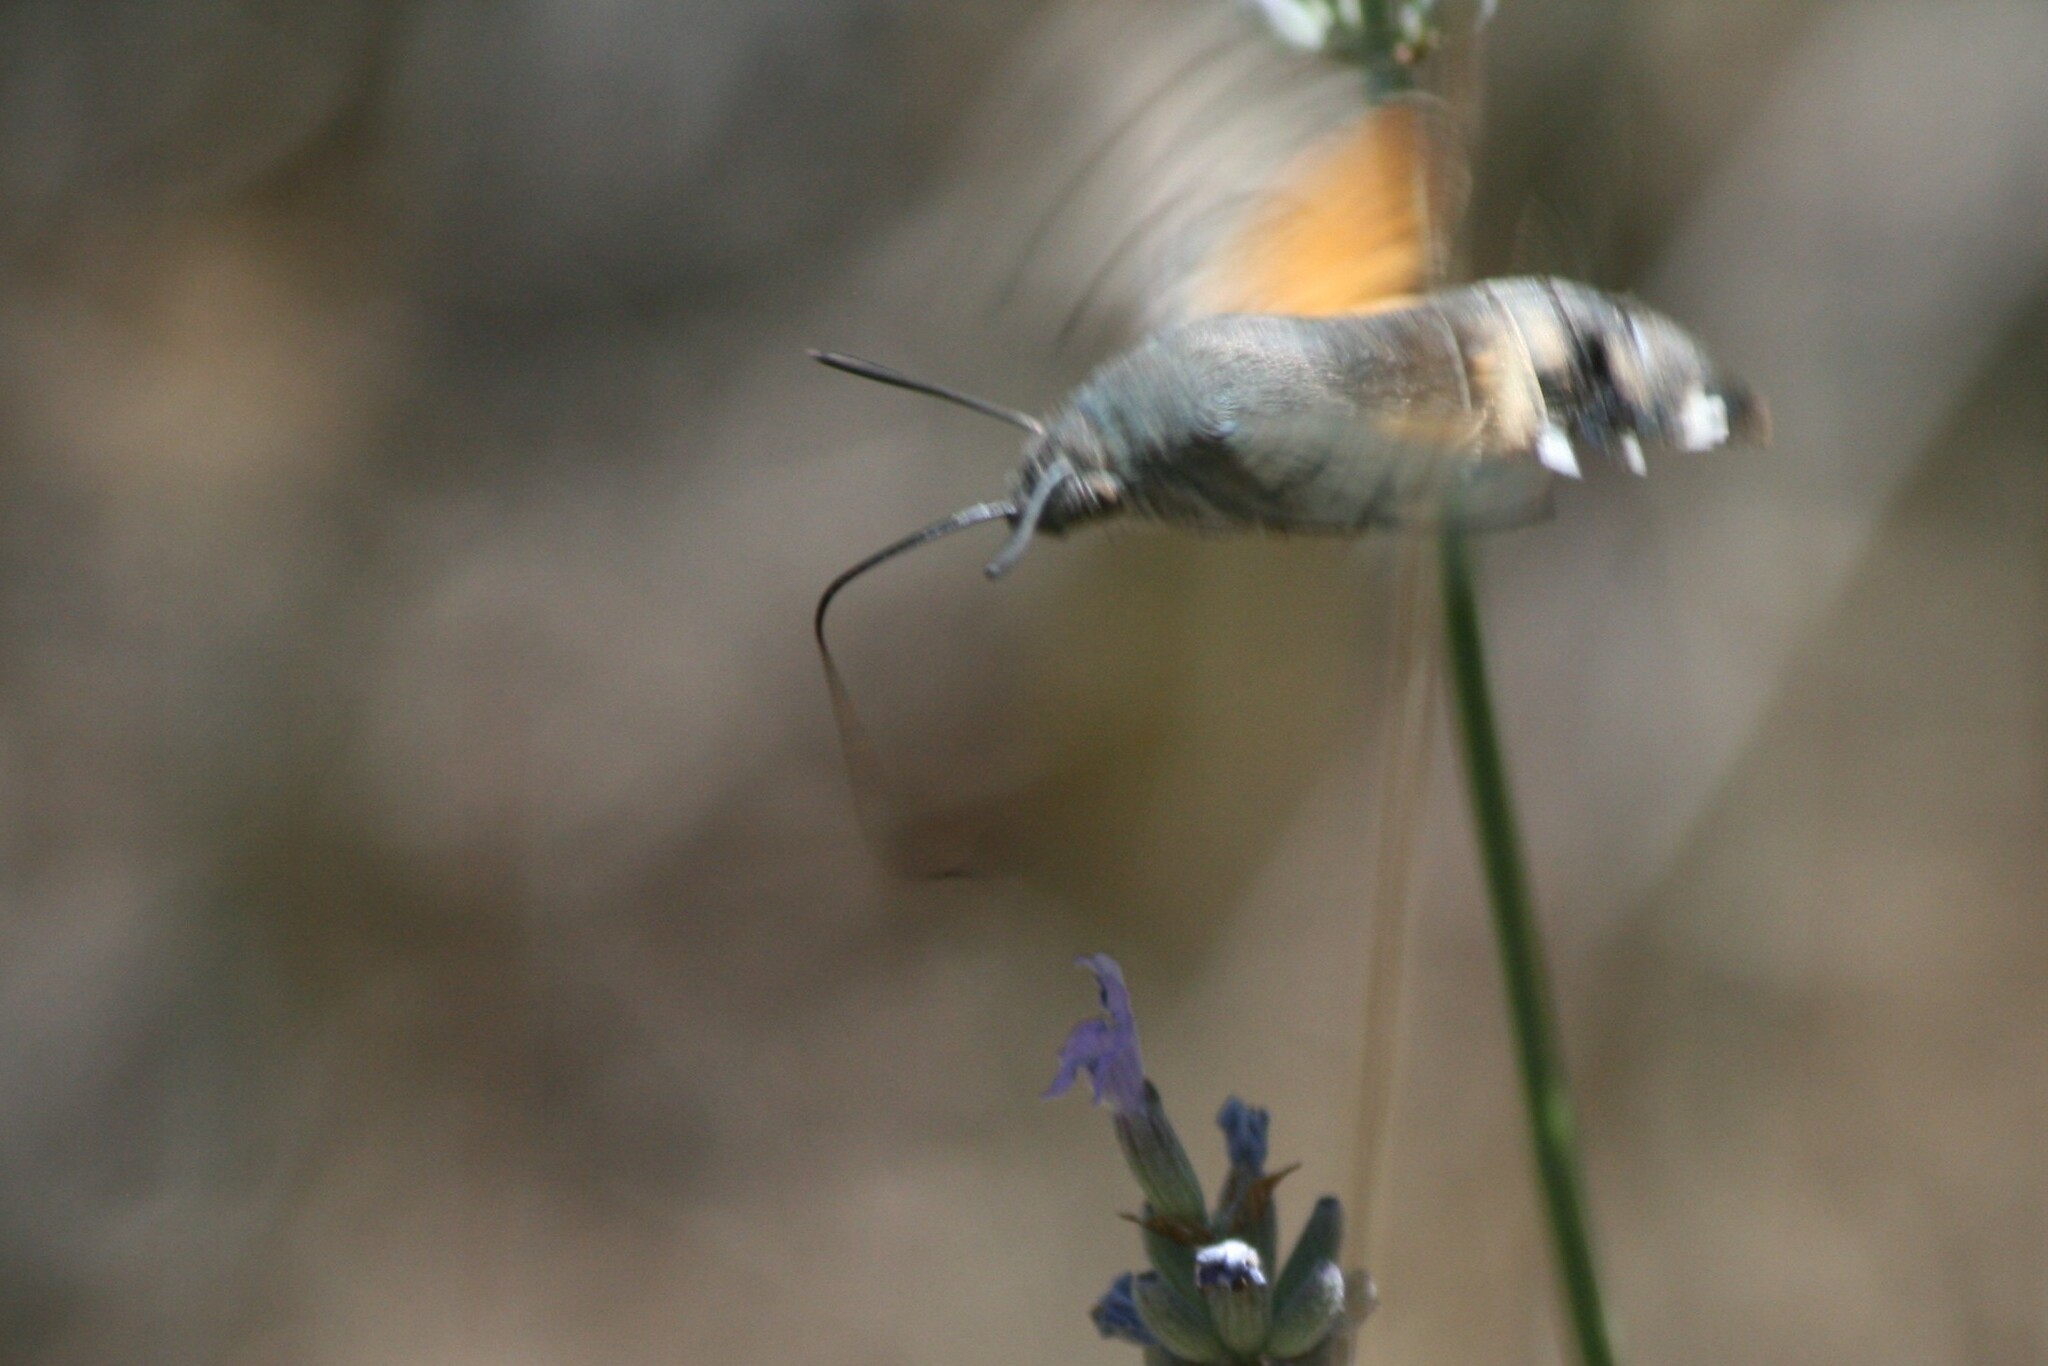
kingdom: Animalia
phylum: Arthropoda
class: Insecta
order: Lepidoptera
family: Sphingidae
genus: Macroglossum
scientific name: Macroglossum stellatarum
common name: Humming-bird hawk-moth
